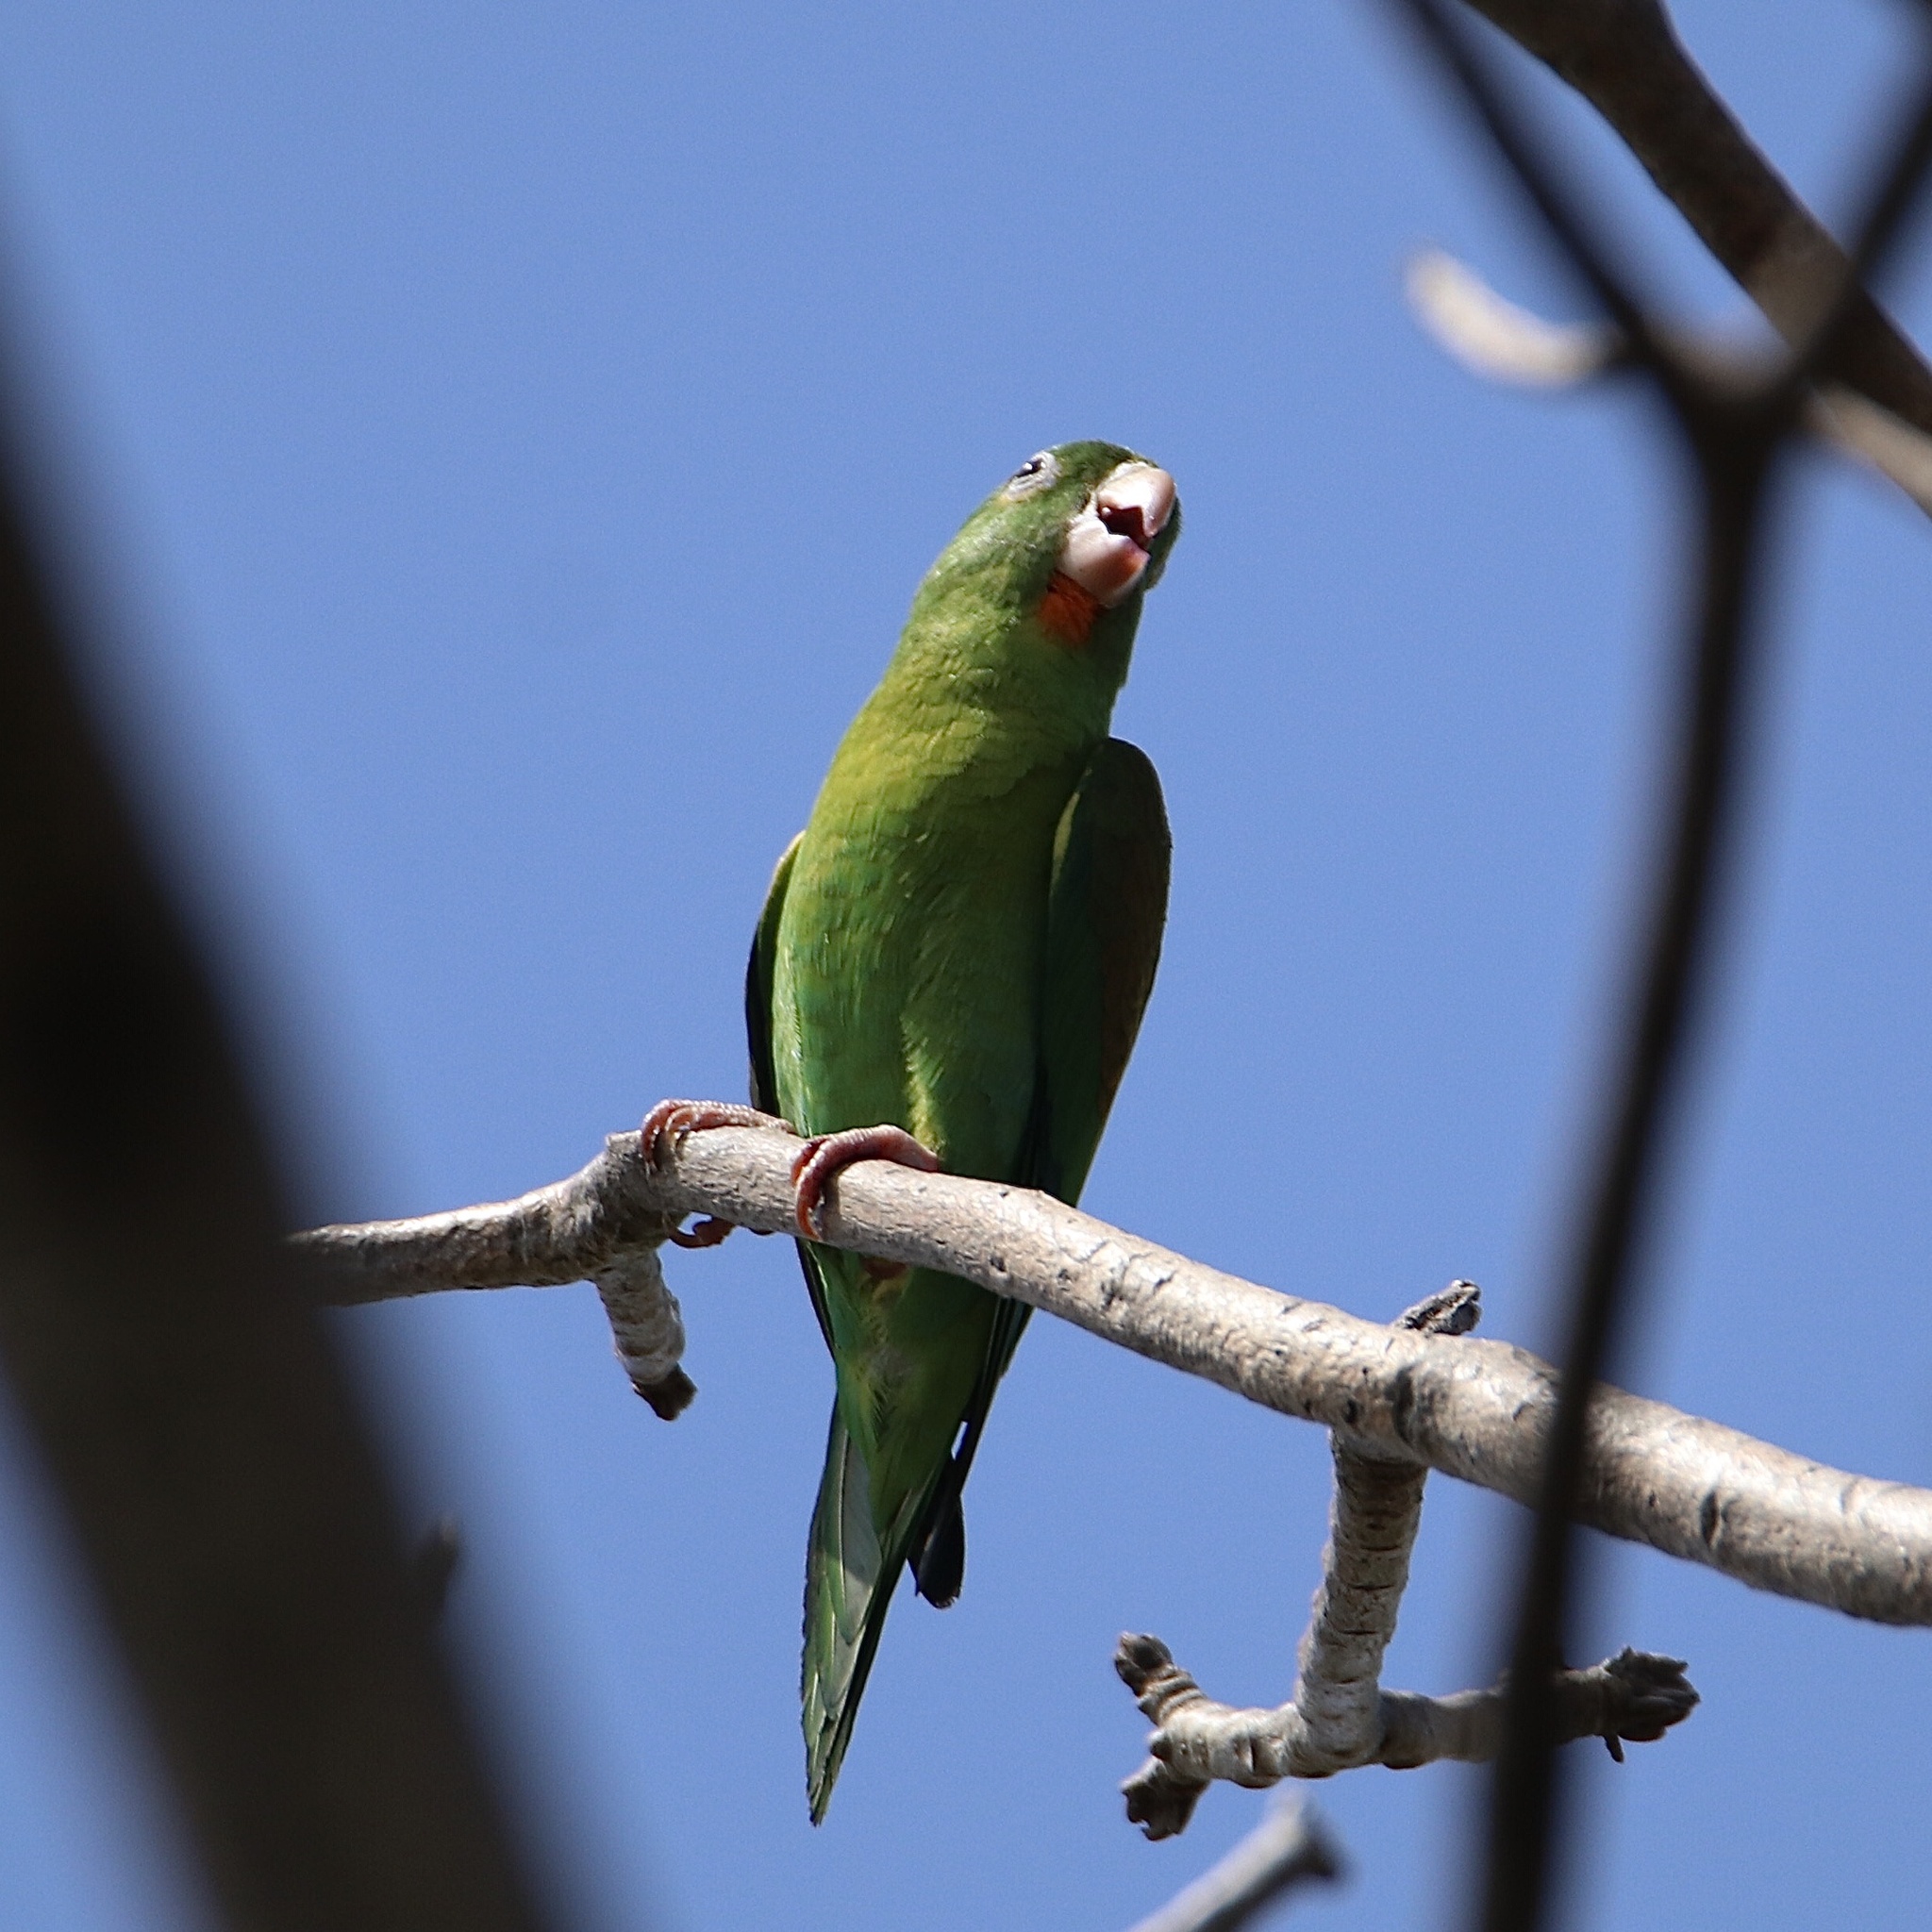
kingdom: Animalia
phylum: Chordata
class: Aves
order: Psittaciformes
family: Psittacidae
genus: Brotogeris
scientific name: Brotogeris jugularis
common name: Orange-chinned parakeet
